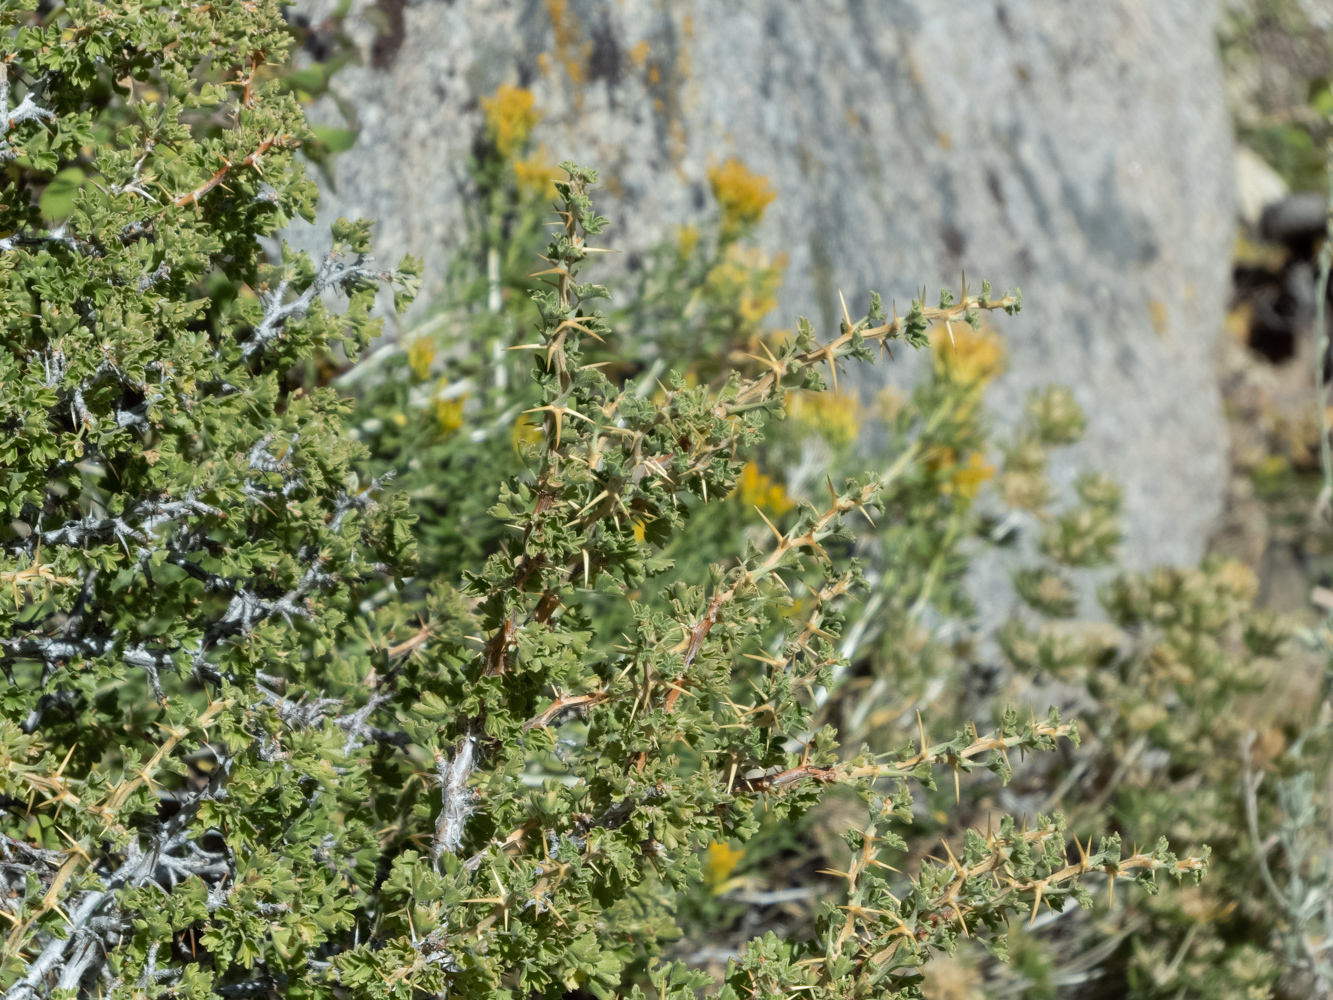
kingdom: Plantae
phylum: Tracheophyta
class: Magnoliopsida
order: Saxifragales
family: Grossulariaceae
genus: Ribes
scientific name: Ribes velutinum
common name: Desert gooseberry
